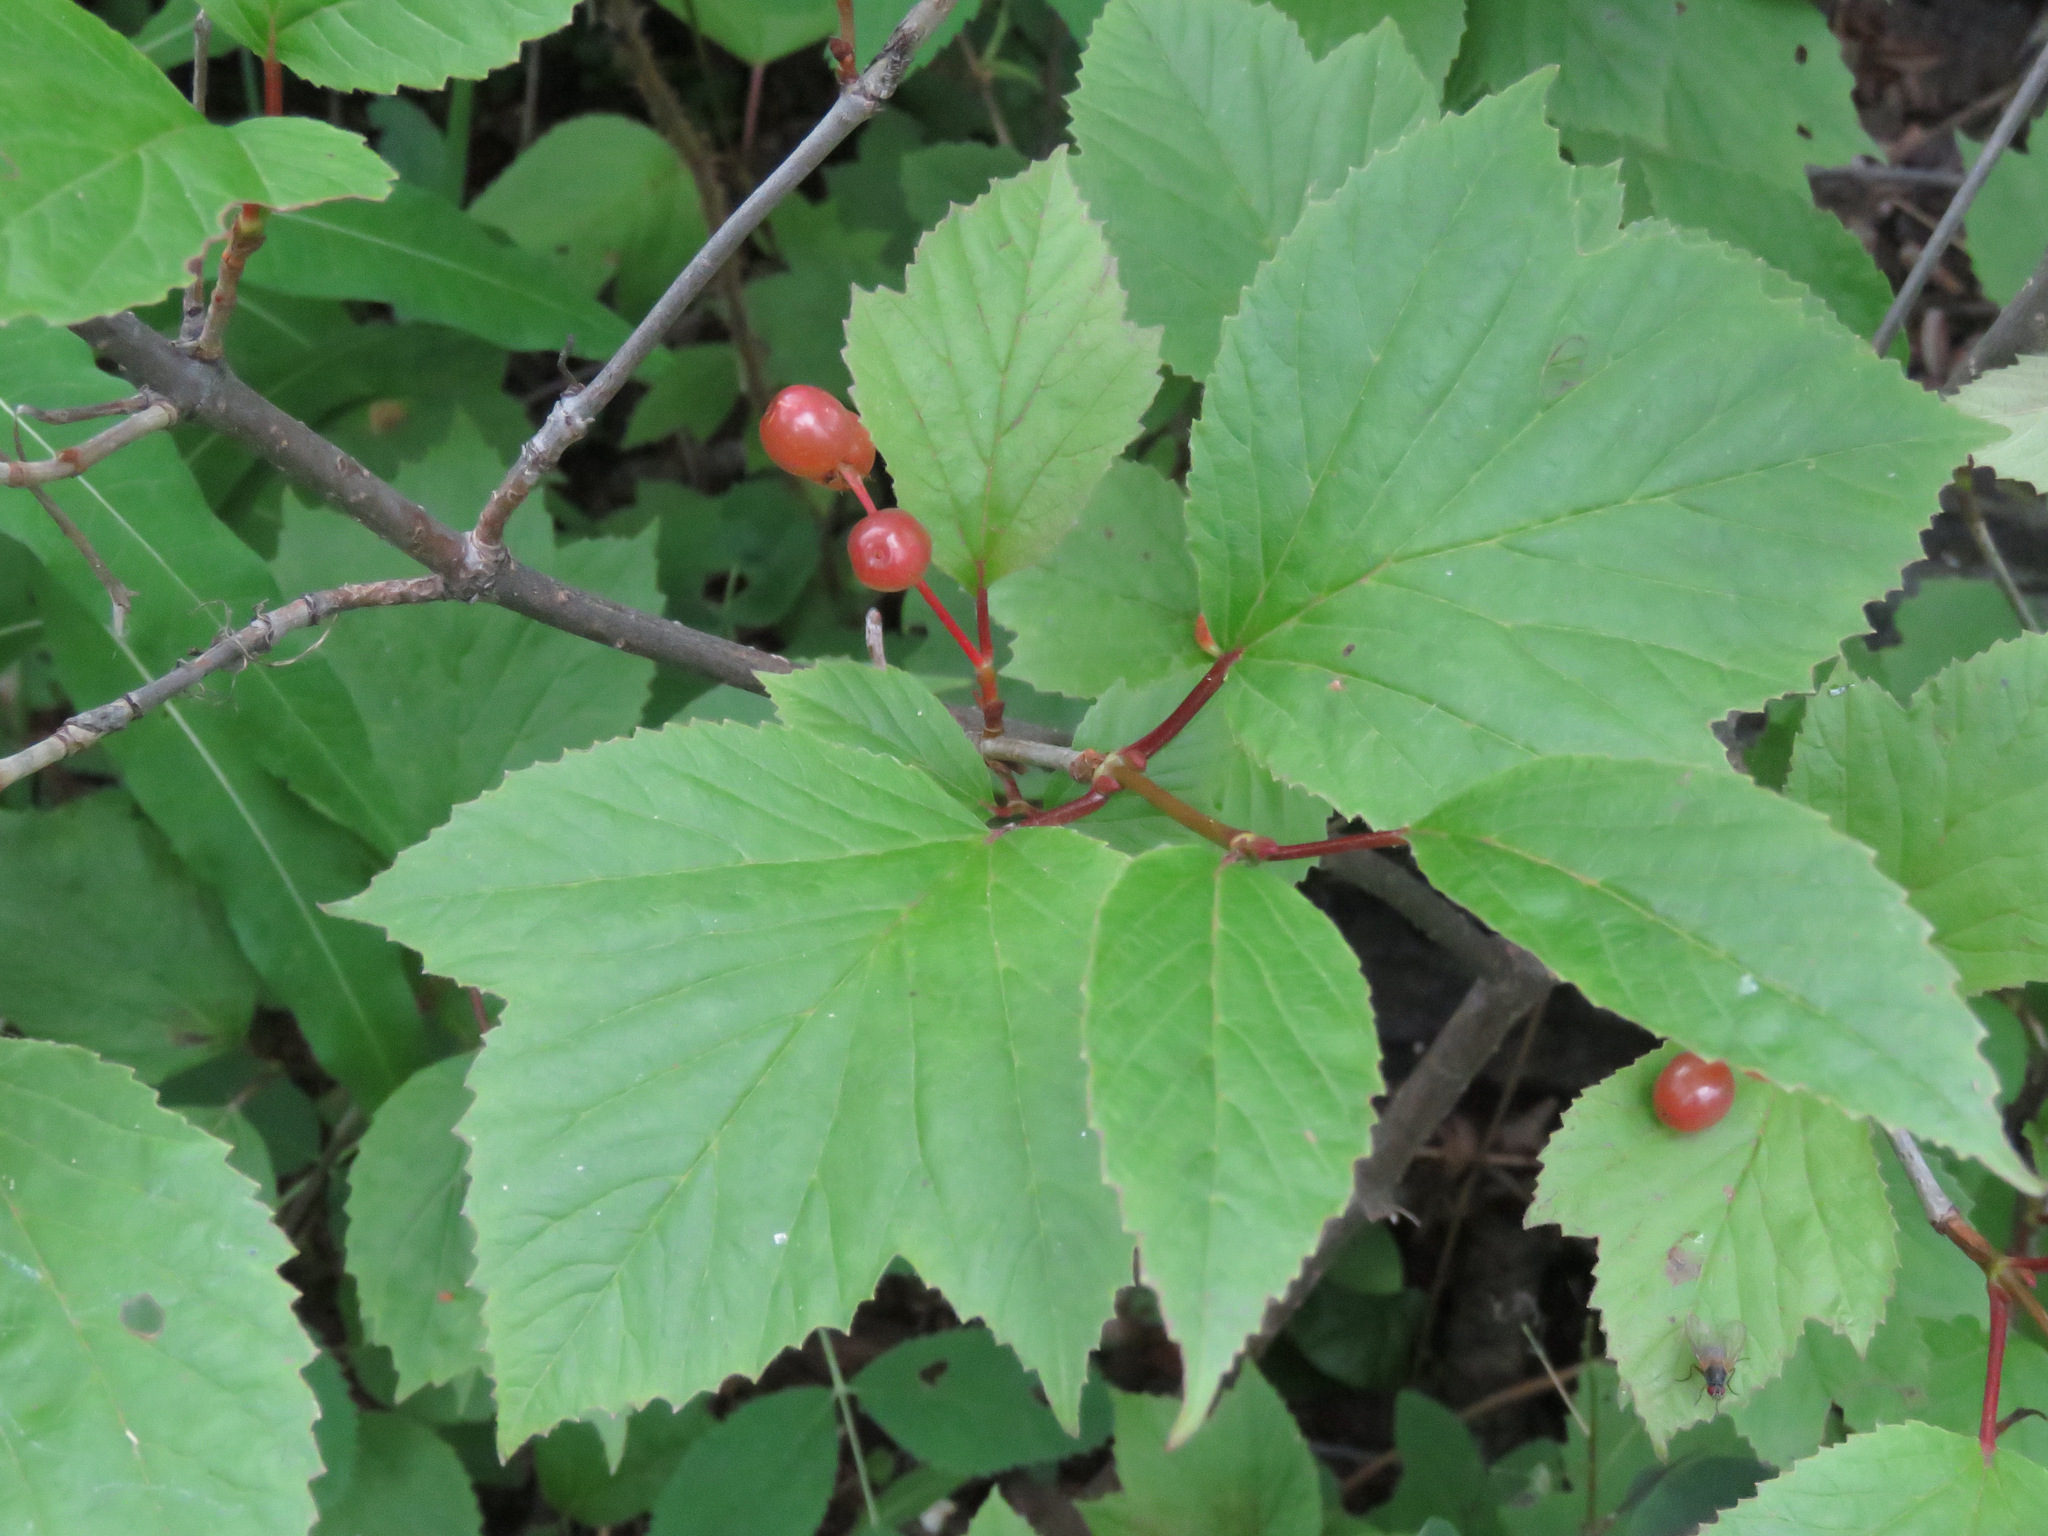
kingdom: Plantae
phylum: Tracheophyta
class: Magnoliopsida
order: Dipsacales
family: Viburnaceae
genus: Viburnum
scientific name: Viburnum edule
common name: Mooseberry
